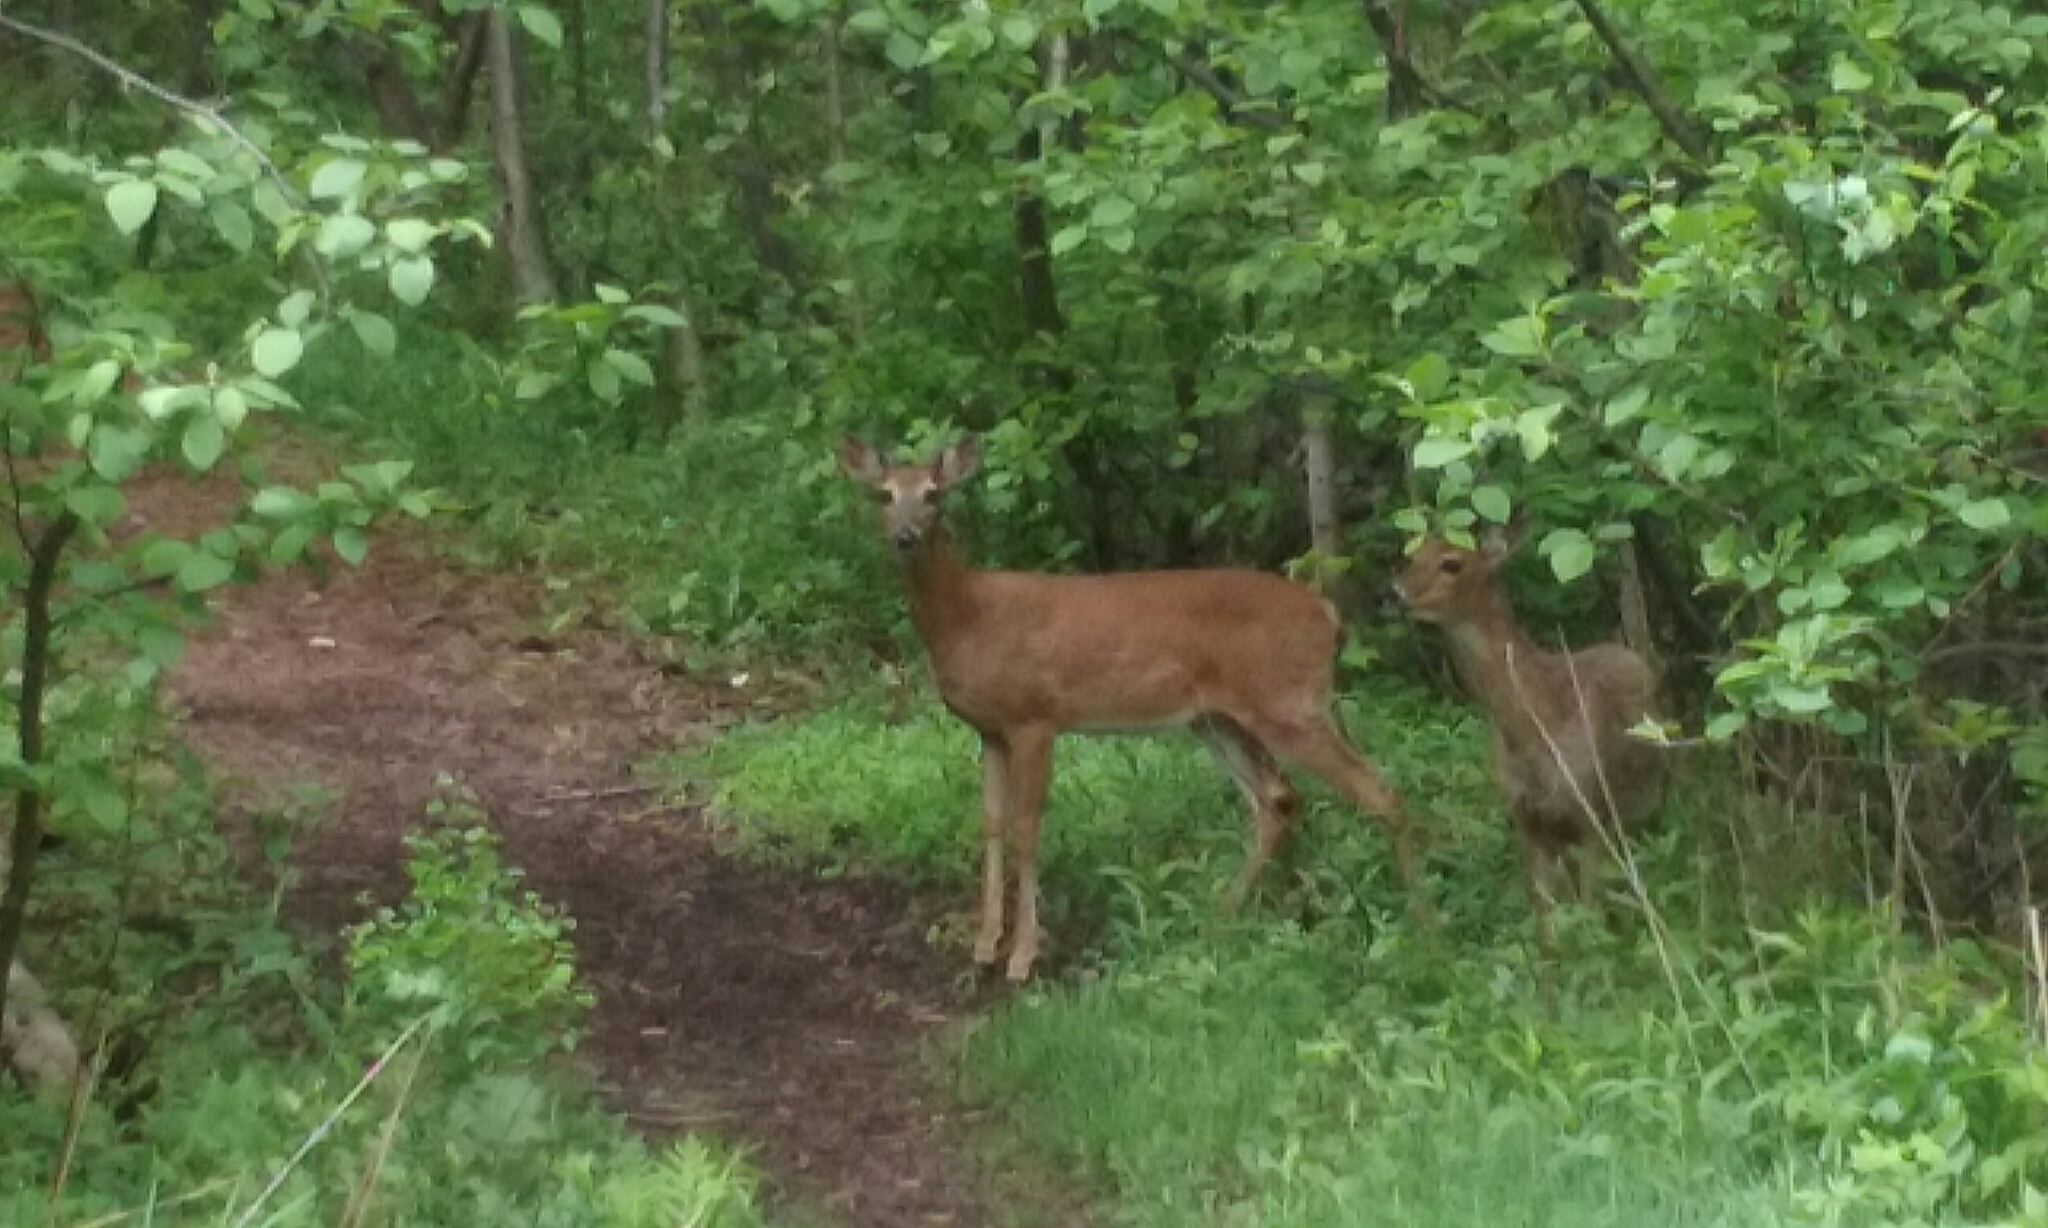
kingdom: Animalia
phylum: Chordata
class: Mammalia
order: Artiodactyla
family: Cervidae
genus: Odocoileus
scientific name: Odocoileus virginianus
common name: White-tailed deer
